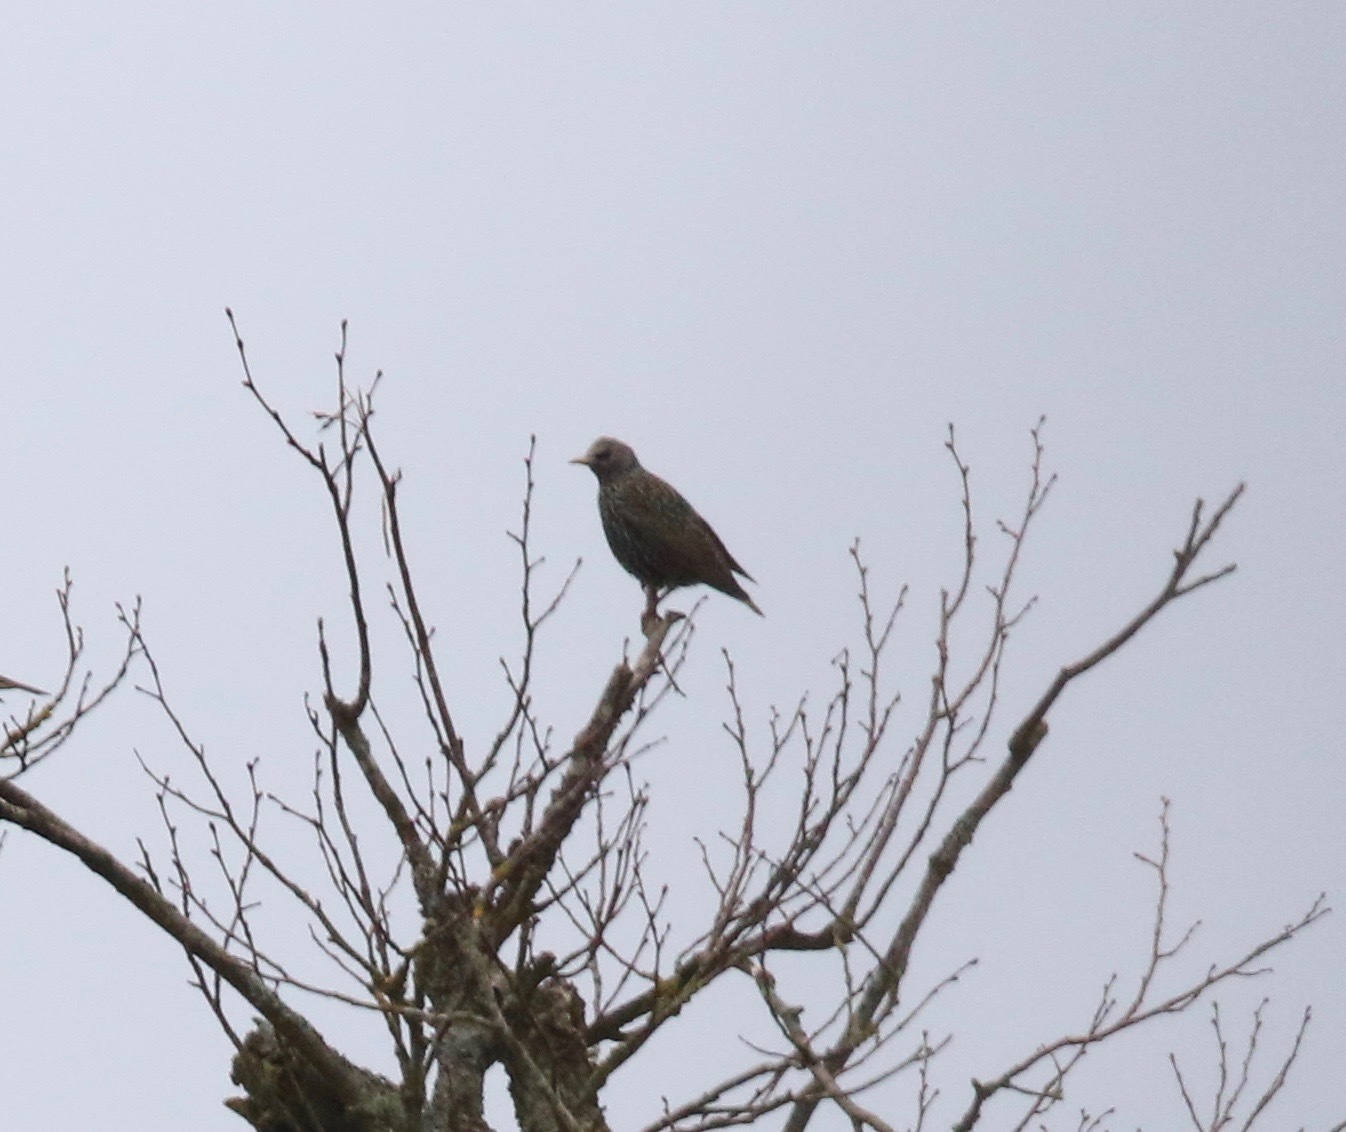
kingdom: Animalia
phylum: Chordata
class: Aves
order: Passeriformes
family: Sturnidae
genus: Sturnus
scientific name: Sturnus vulgaris
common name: Common starling
